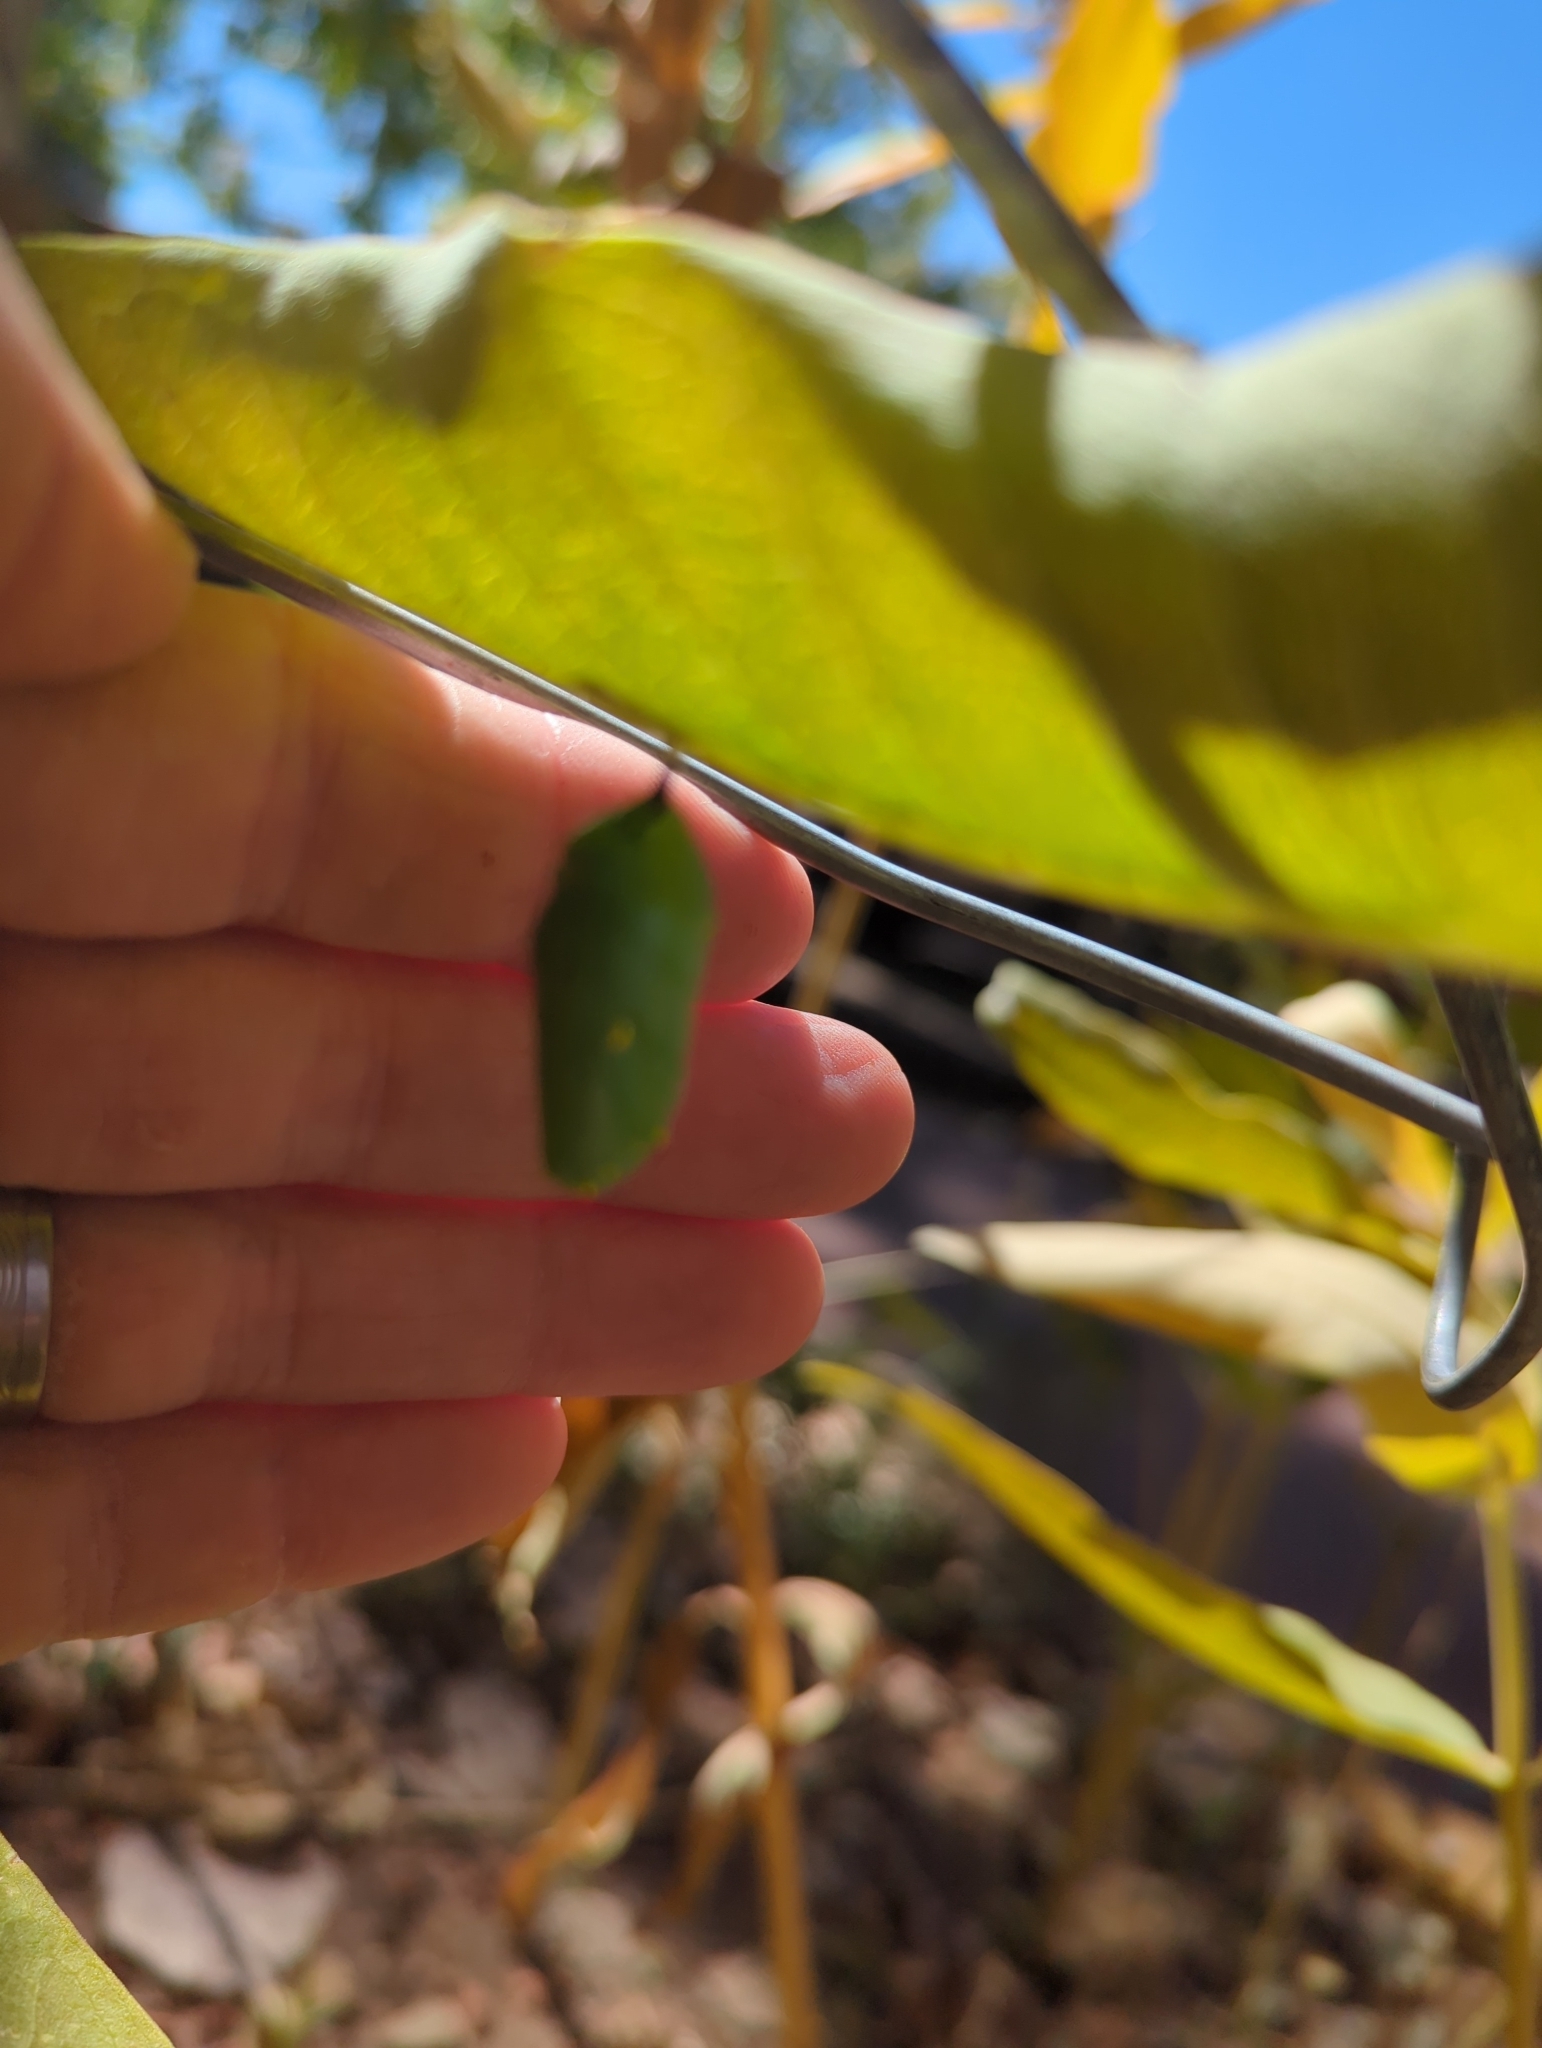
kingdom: Animalia
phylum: Arthropoda
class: Insecta
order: Lepidoptera
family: Nymphalidae
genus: Danaus
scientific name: Danaus plexippus
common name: Monarch
